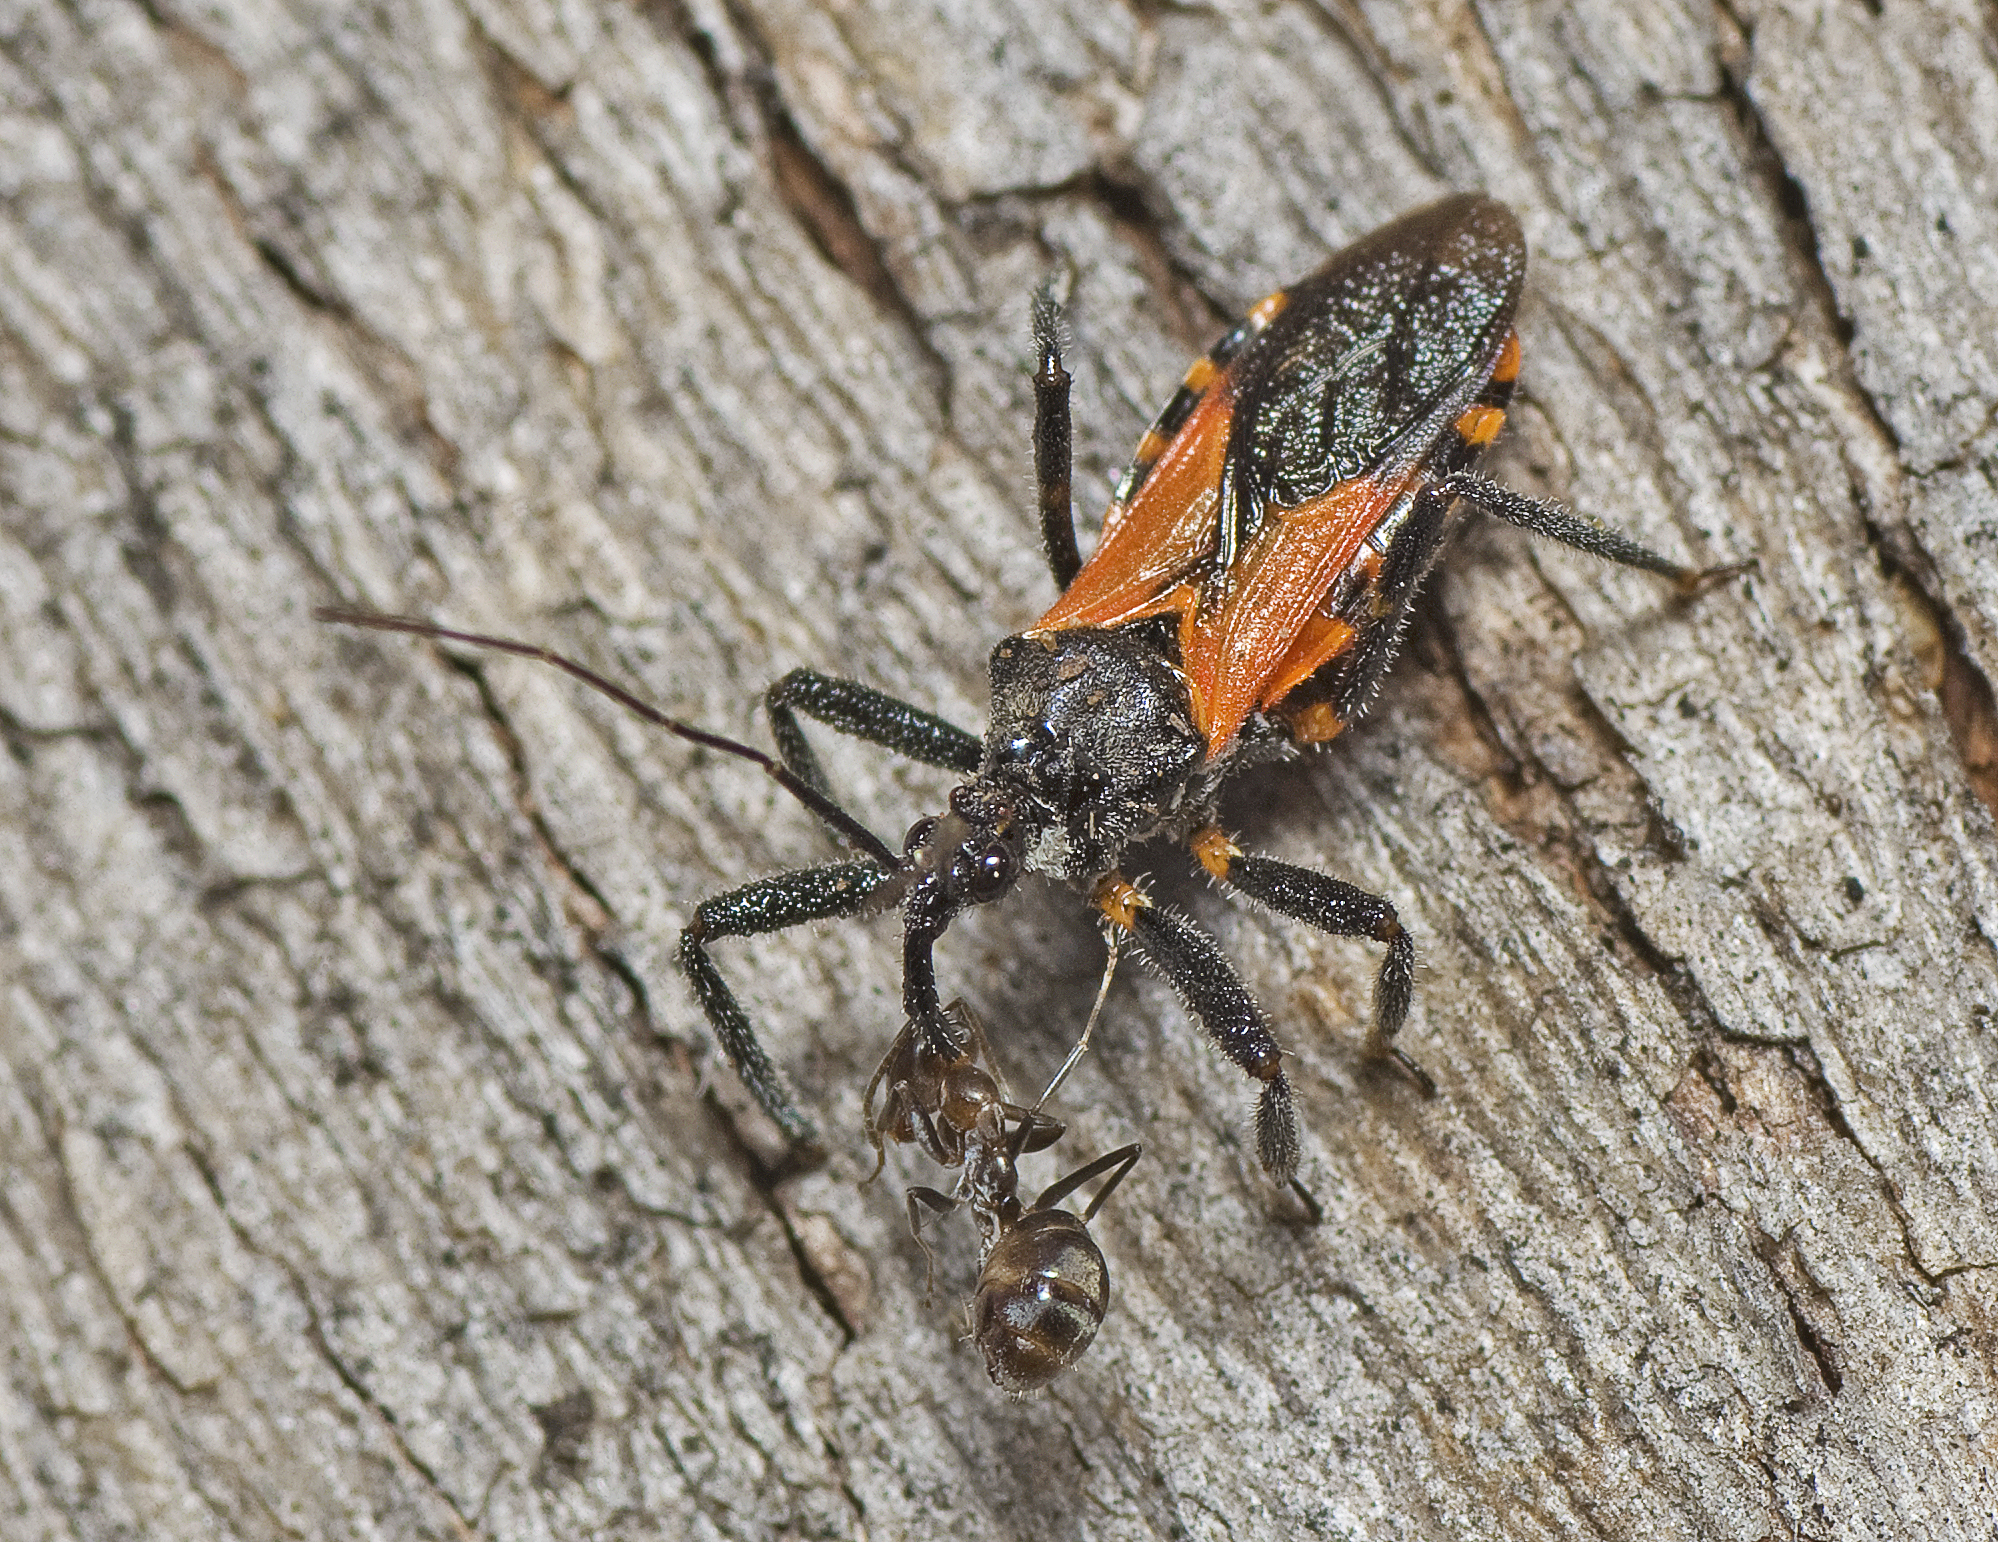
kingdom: Animalia
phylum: Arthropoda
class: Insecta
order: Hemiptera
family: Reduviidae
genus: Catasphactes
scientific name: Catasphactes pyrrhopterus
